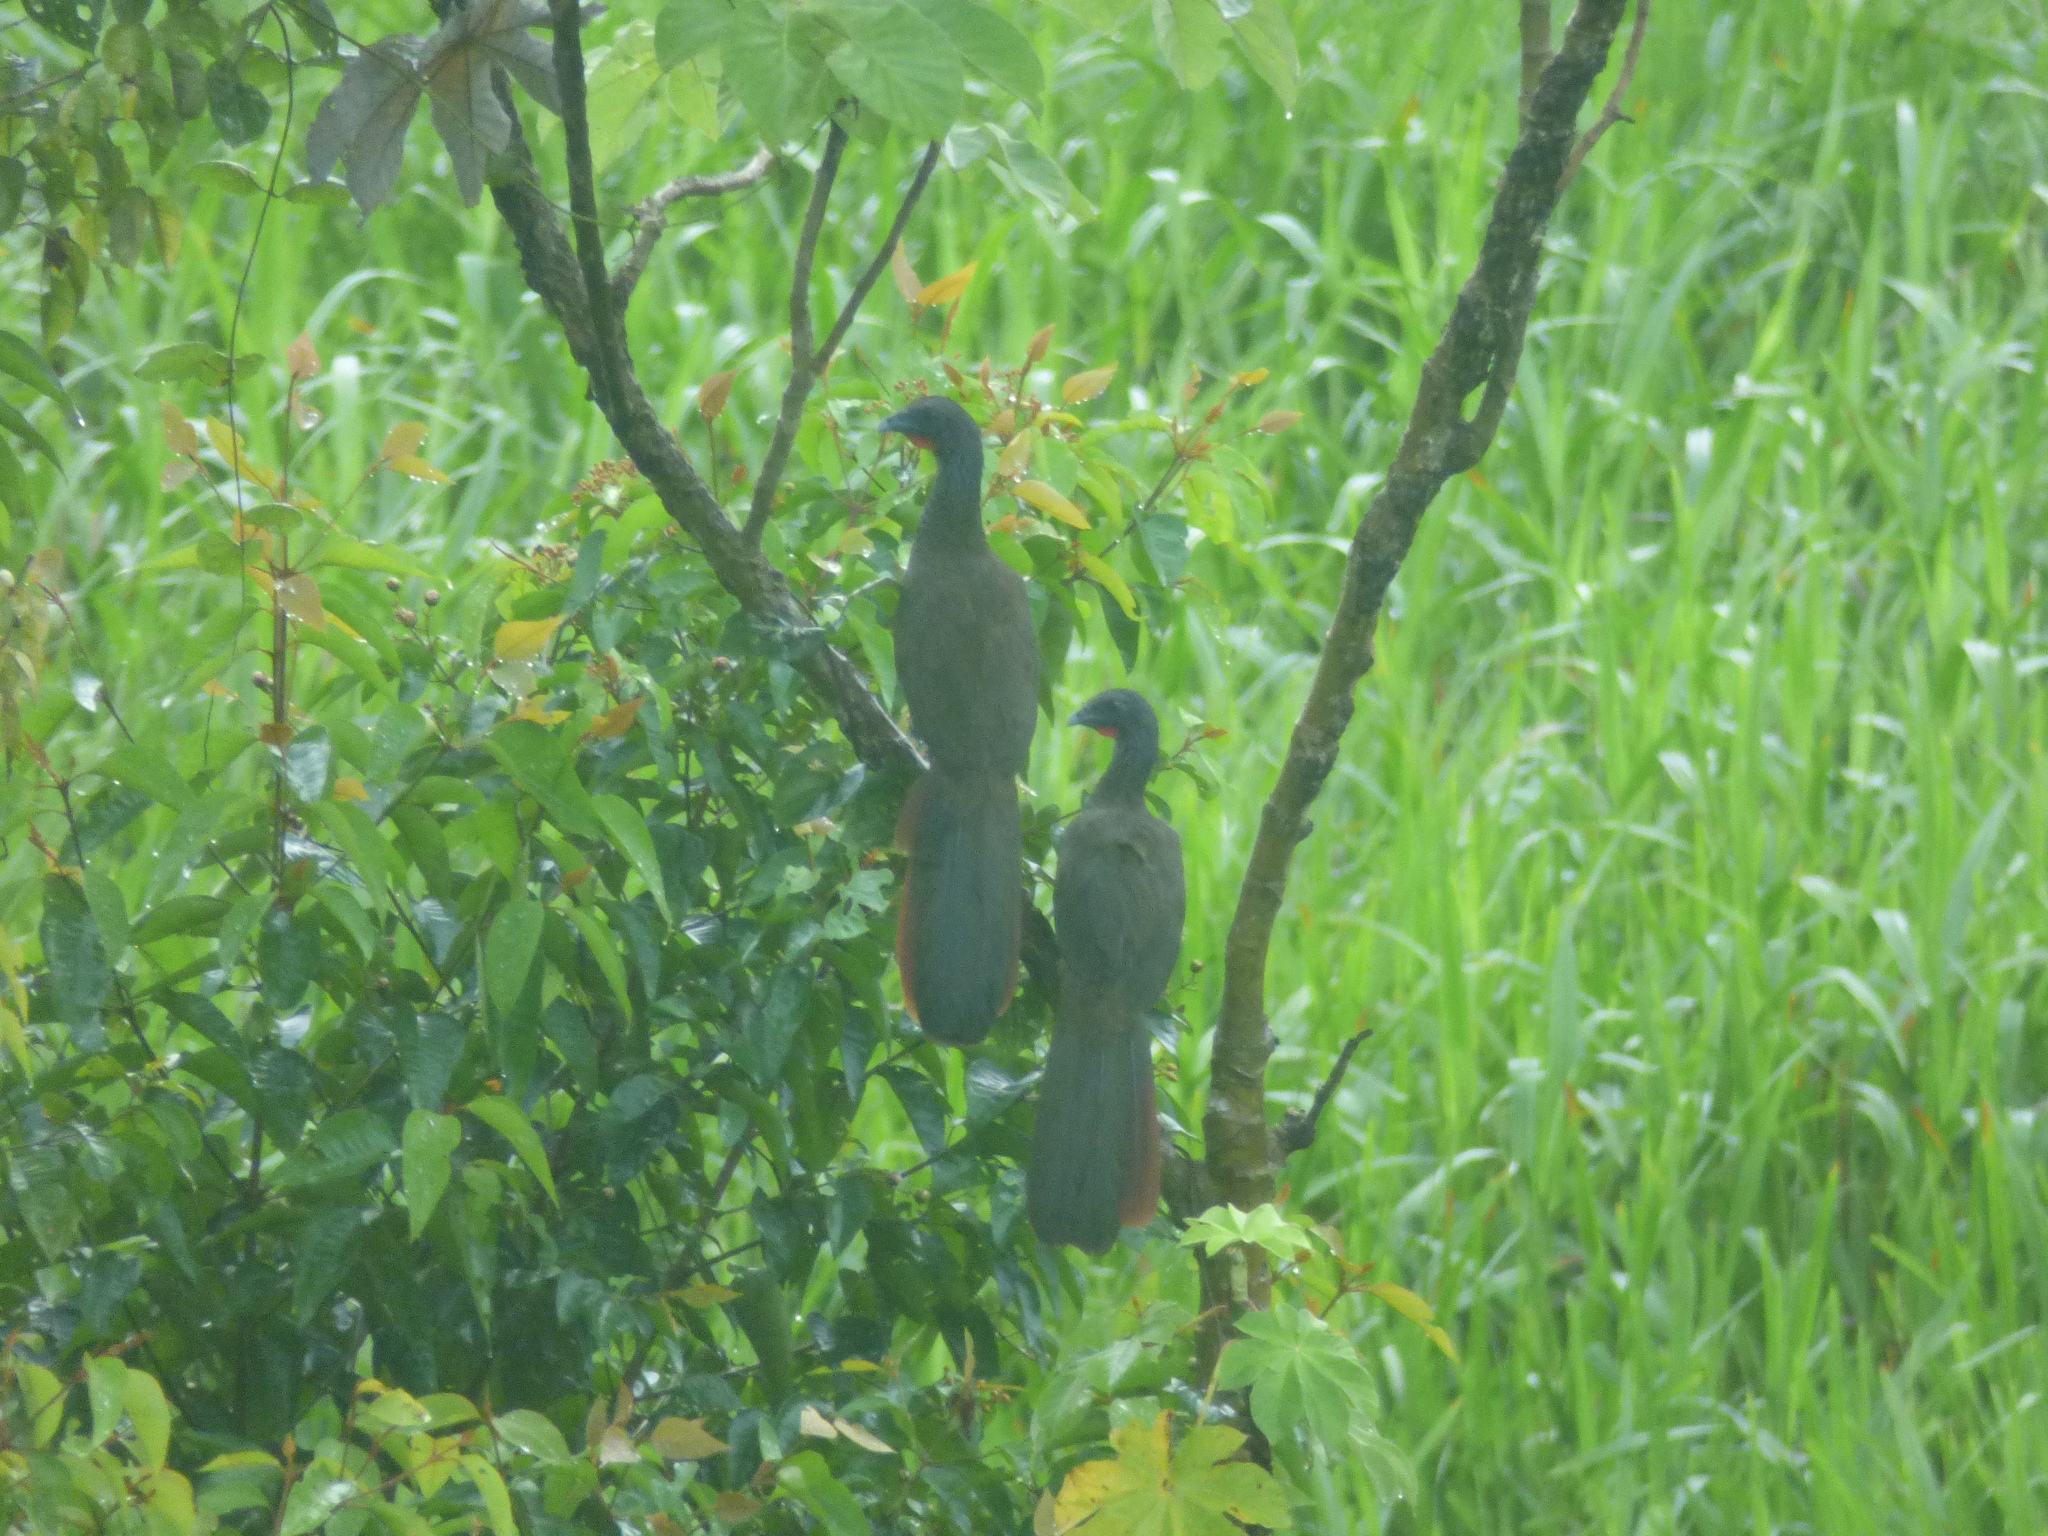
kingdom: Animalia
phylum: Chordata
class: Aves
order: Galliformes
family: Cracidae
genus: Ortalis
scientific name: Ortalis columbiana
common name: Colombian chachalaca
